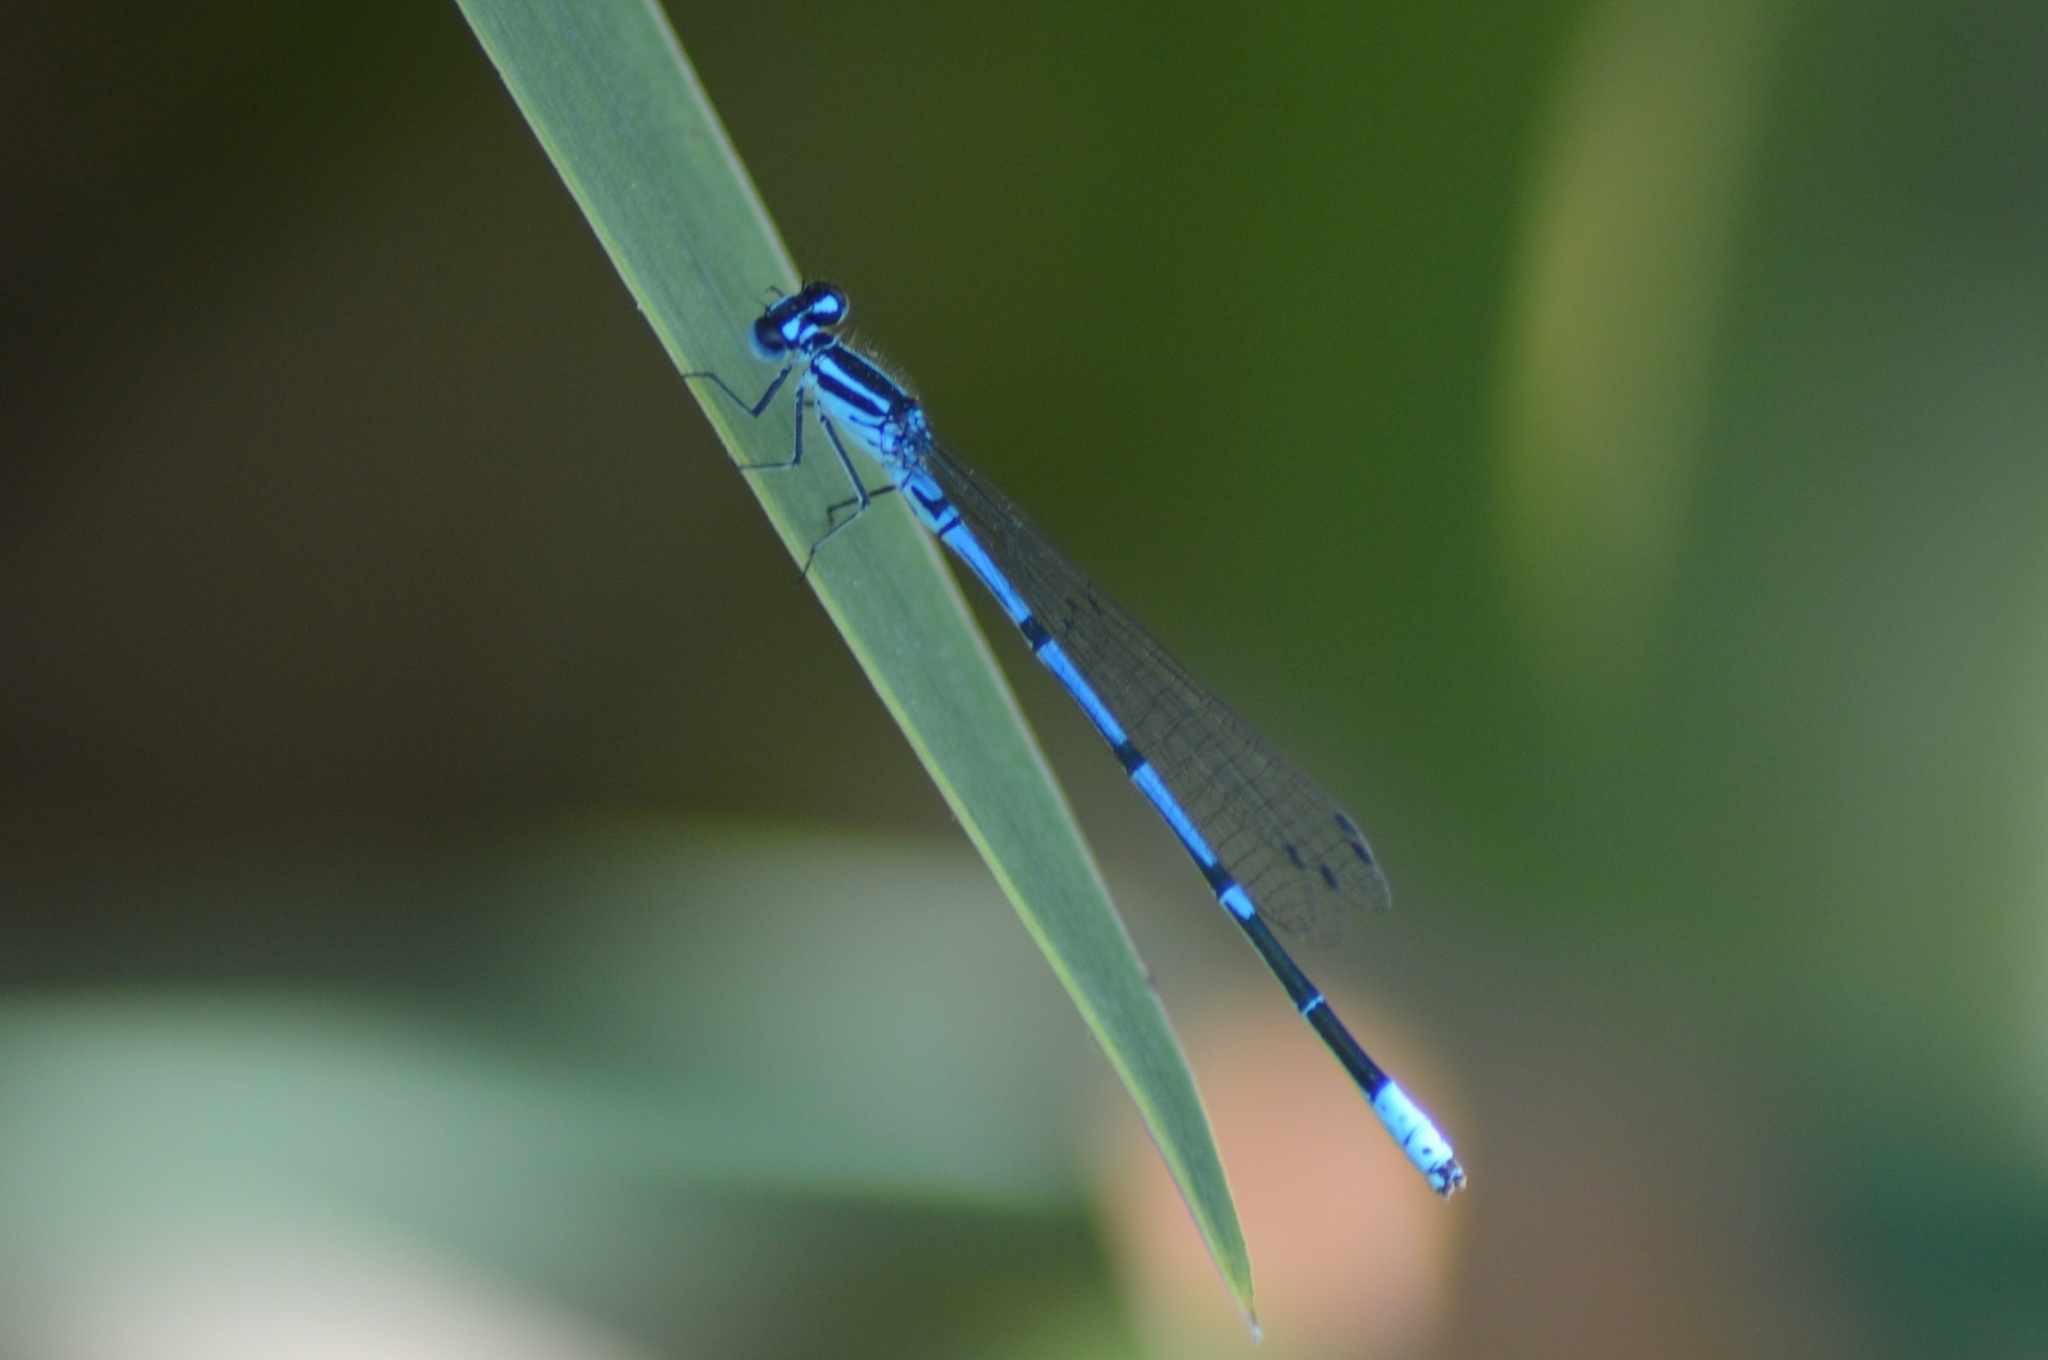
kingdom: Animalia
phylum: Arthropoda
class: Insecta
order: Odonata
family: Coenagrionidae
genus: Coenagrion
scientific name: Coenagrion puella
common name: Azure damselfly
